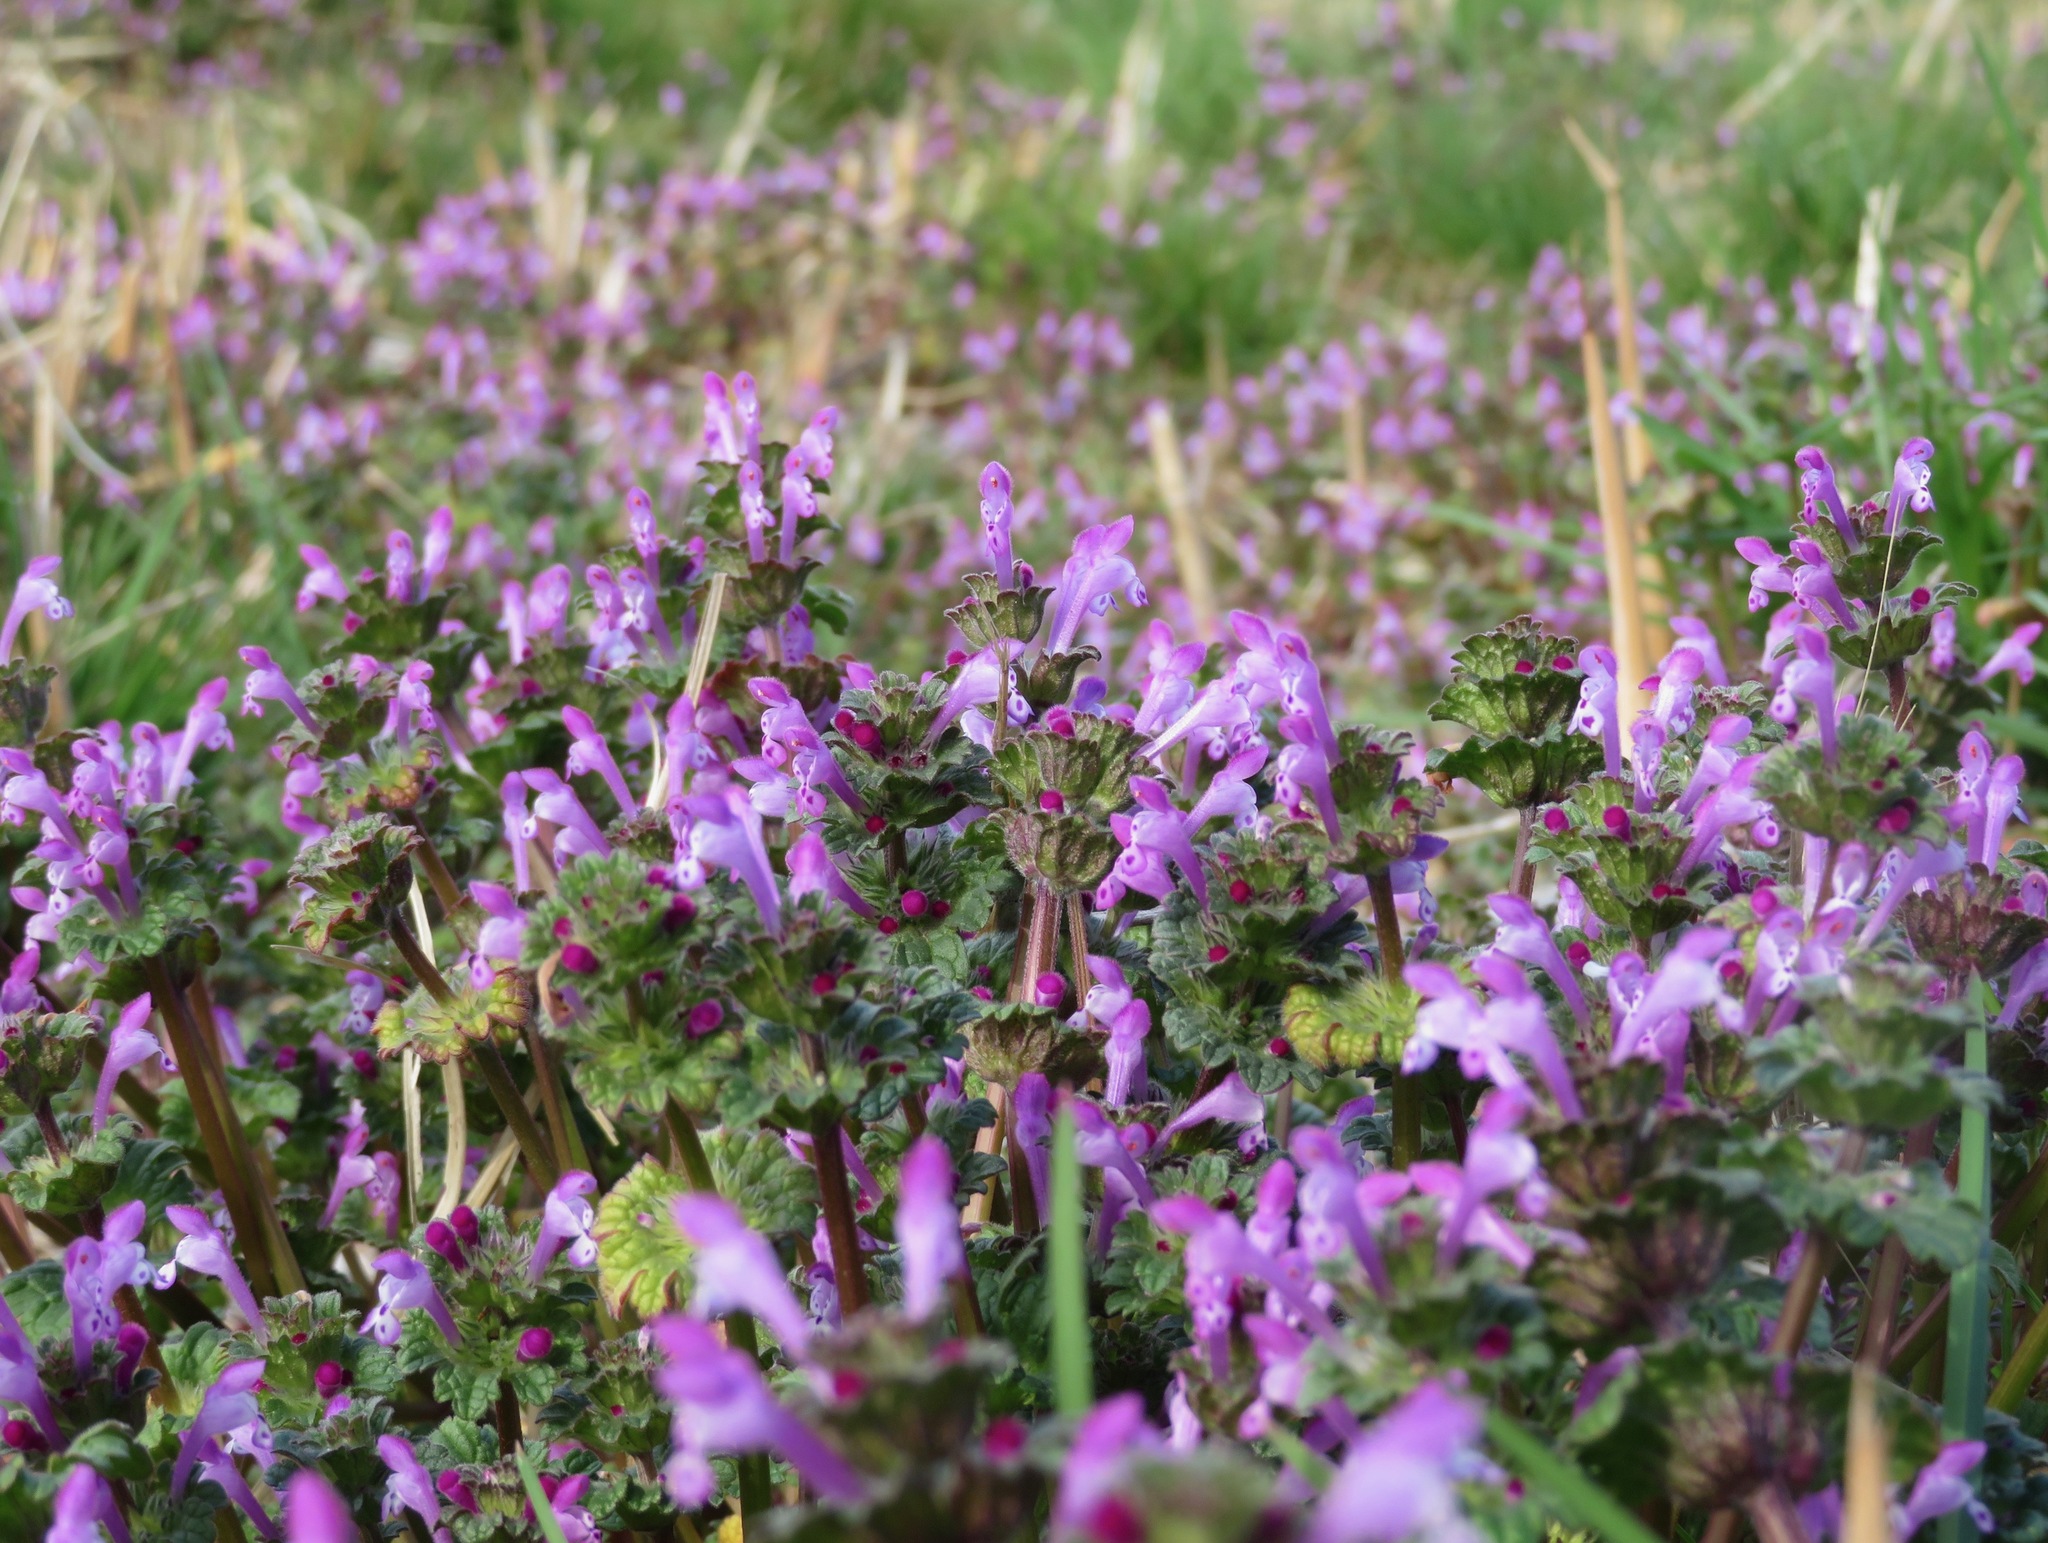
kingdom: Plantae
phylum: Tracheophyta
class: Magnoliopsida
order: Lamiales
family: Lamiaceae
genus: Lamium
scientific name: Lamium amplexicaule
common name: Henbit dead-nettle
